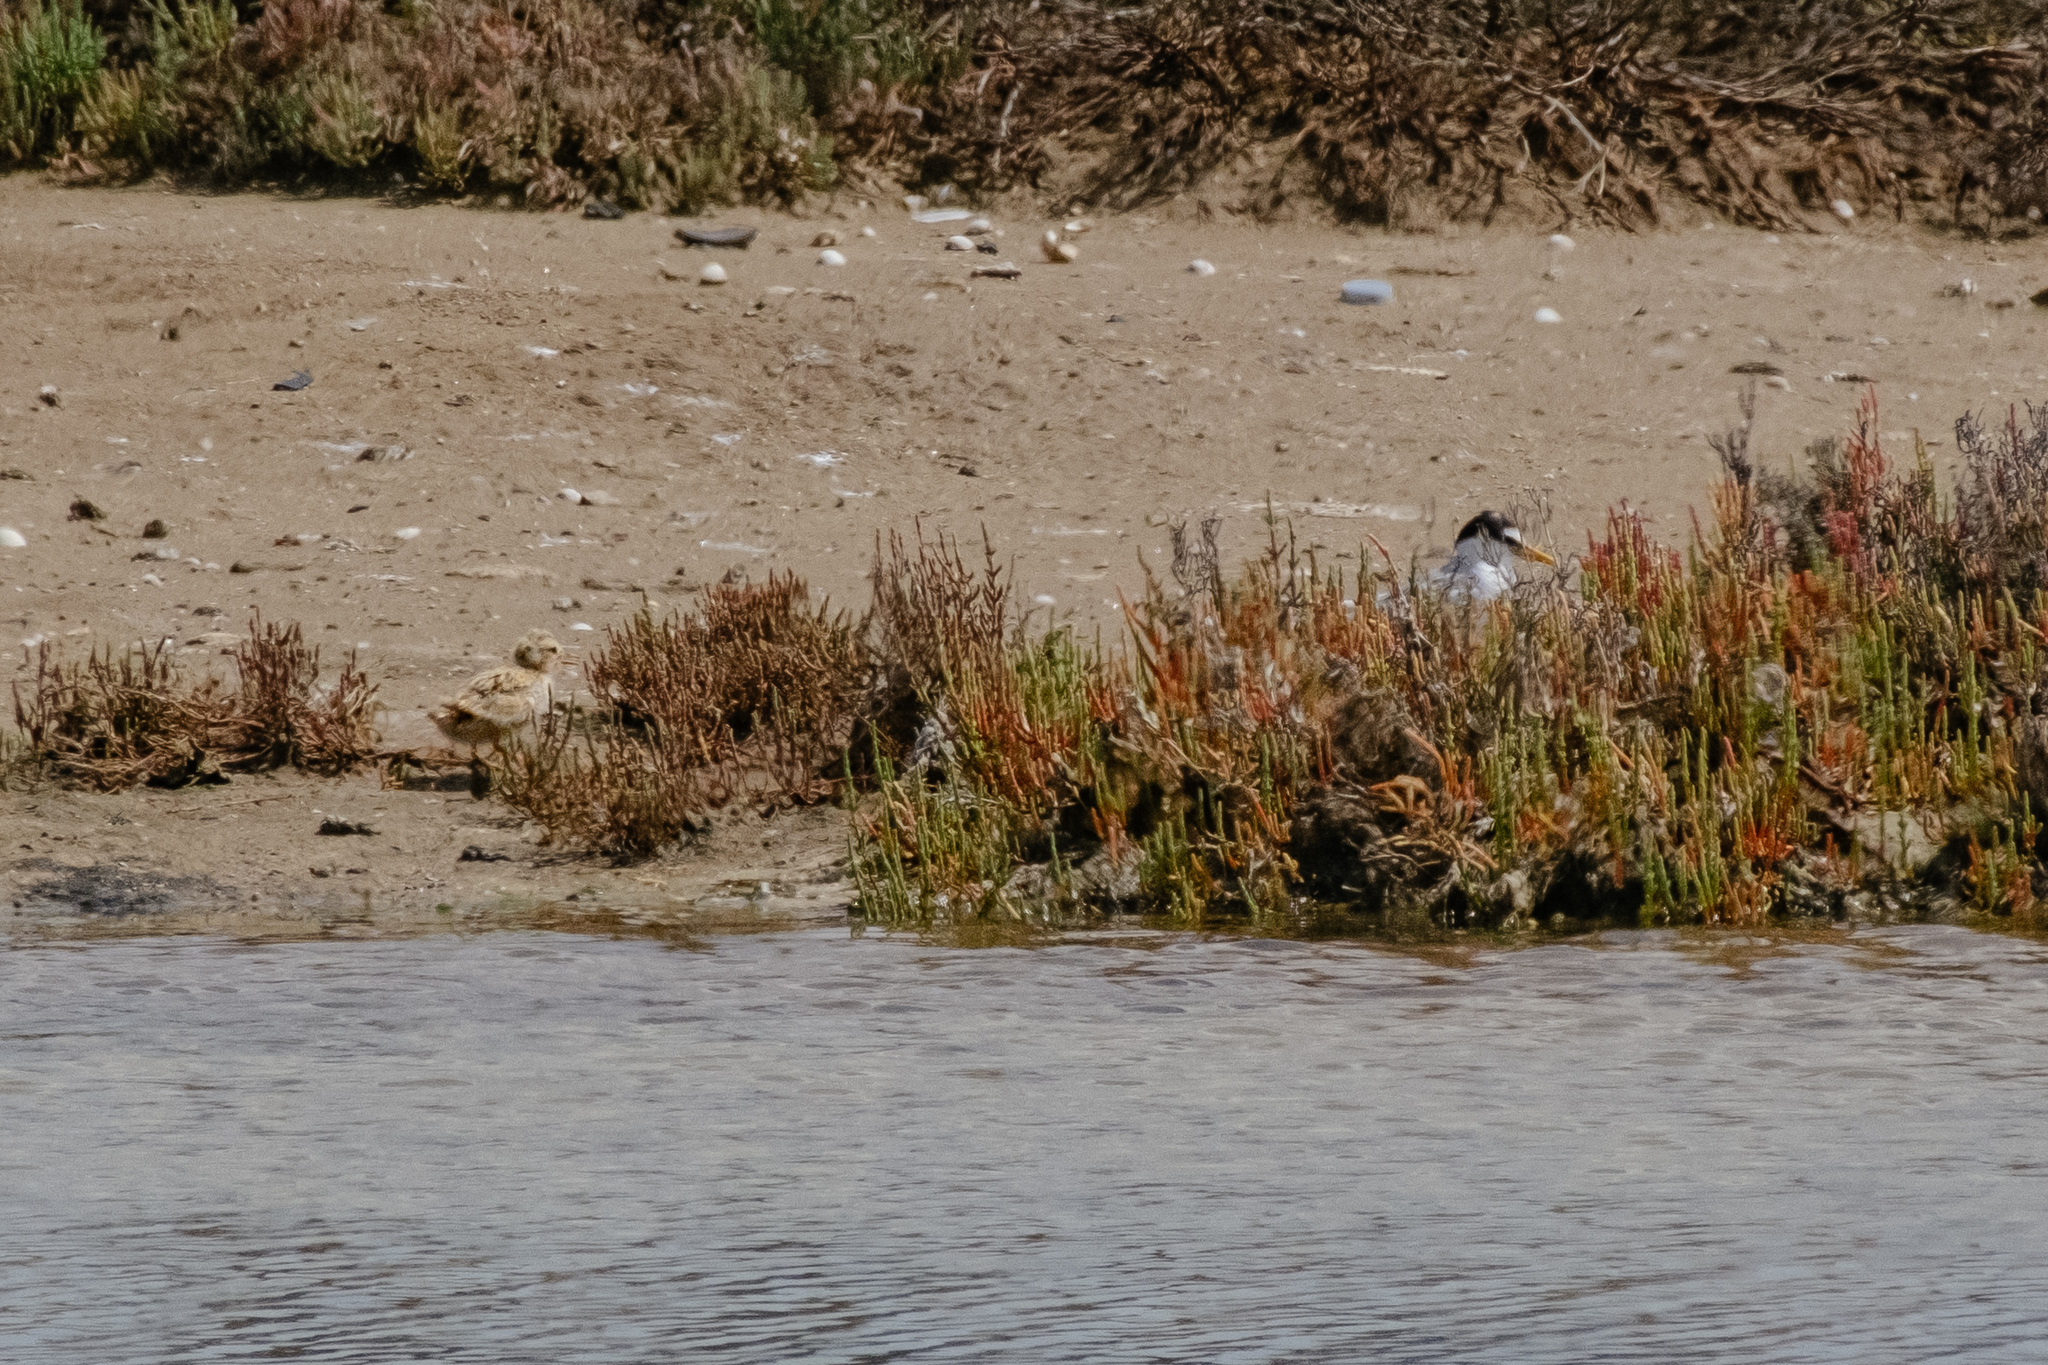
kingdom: Animalia
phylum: Chordata
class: Aves
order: Charadriiformes
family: Laridae
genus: Sternula
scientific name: Sternula albifrons
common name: Little tern
